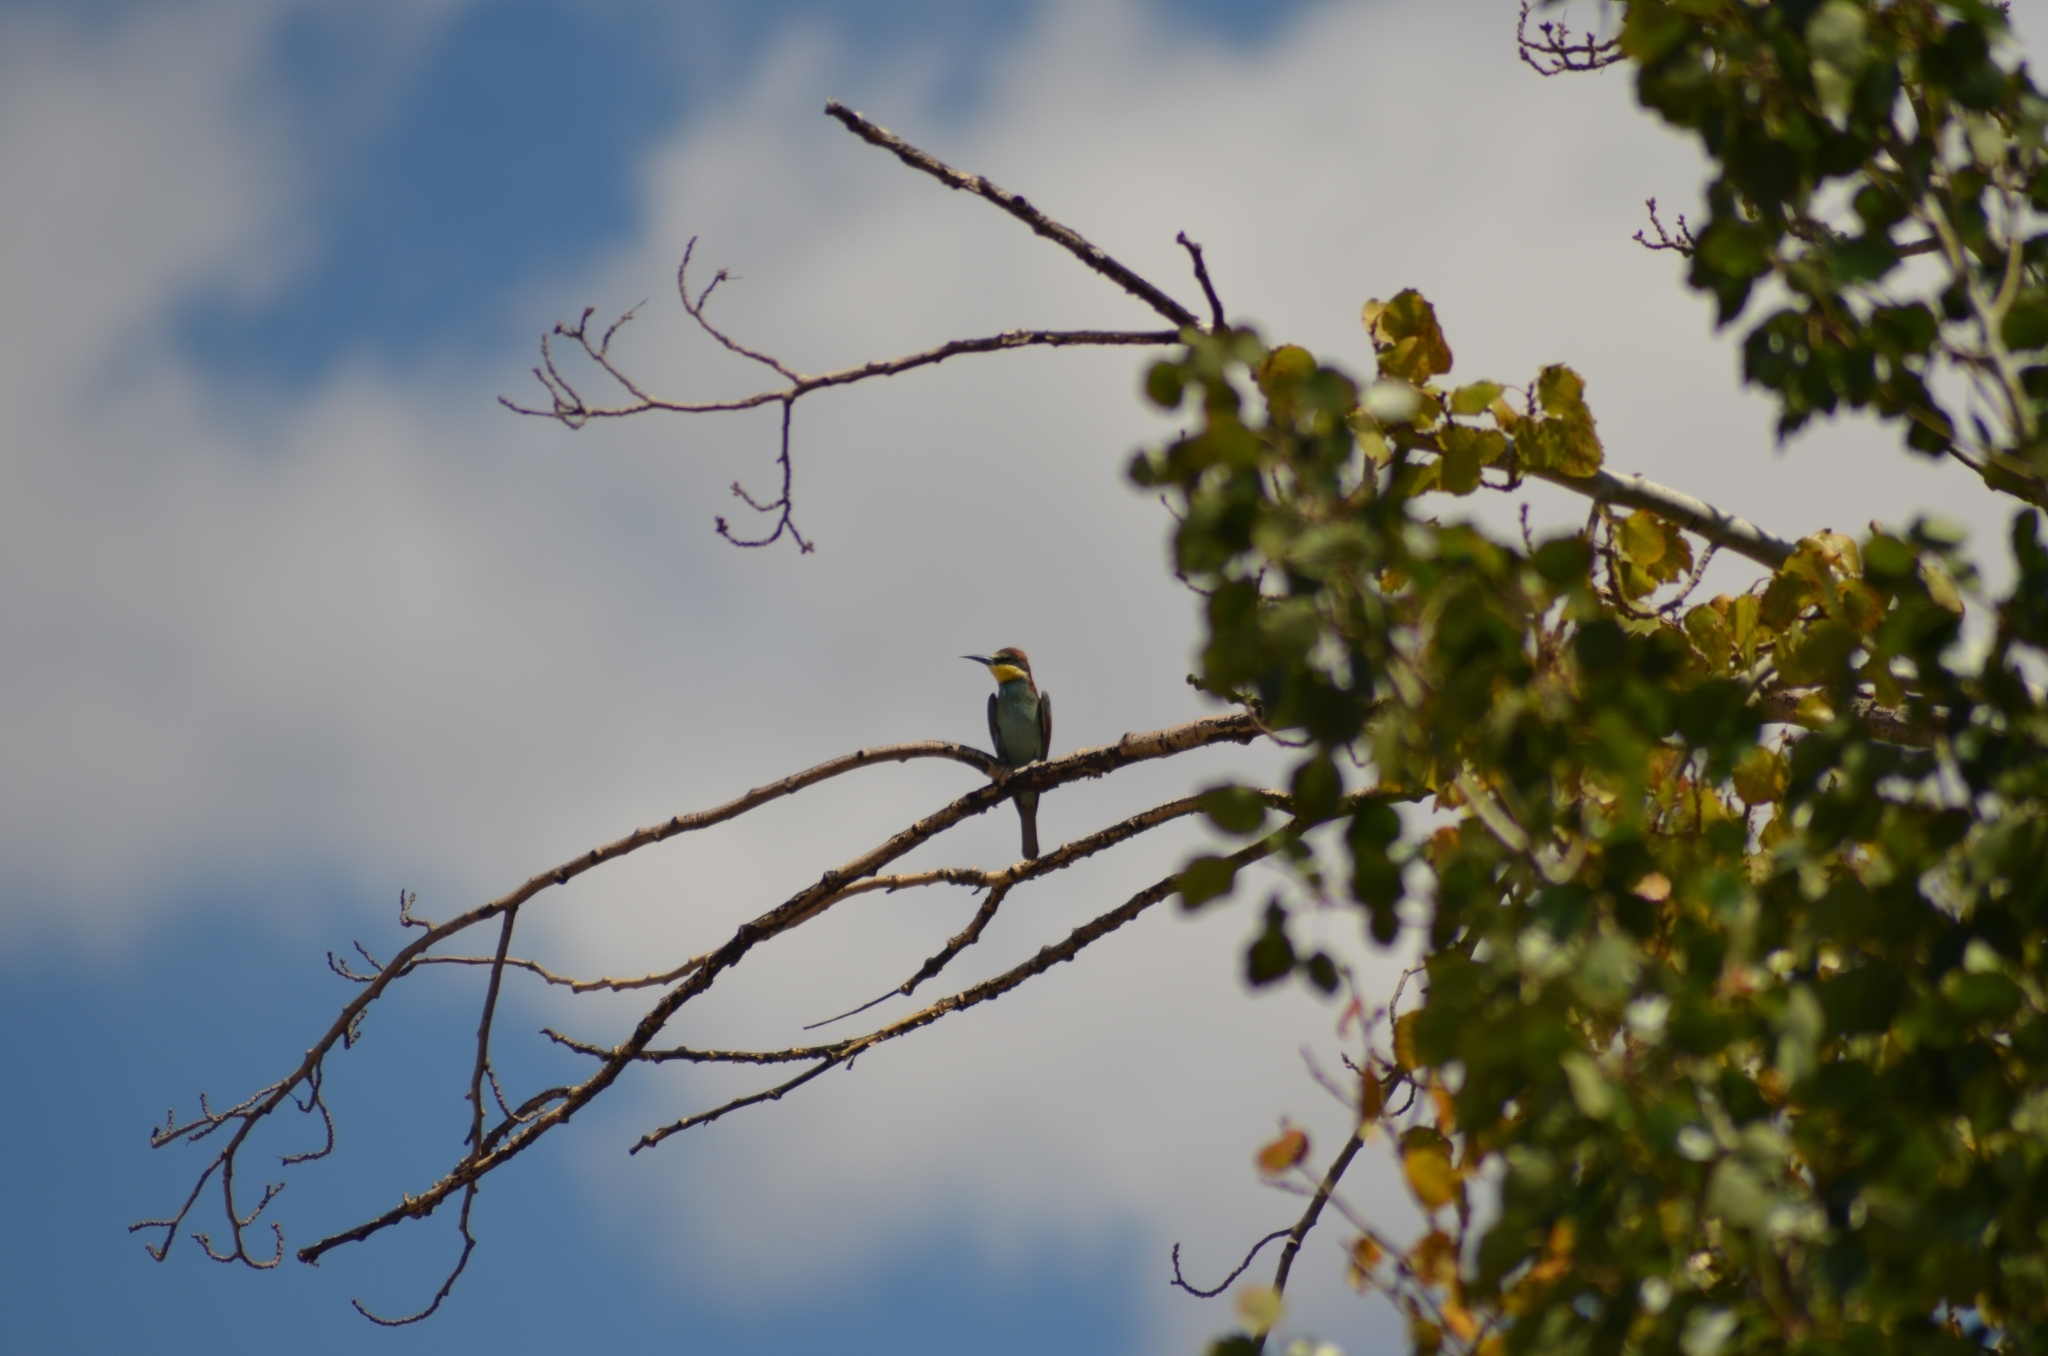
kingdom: Animalia
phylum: Chordata
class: Aves
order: Coraciiformes
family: Meropidae
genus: Merops
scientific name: Merops apiaster
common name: European bee-eater
